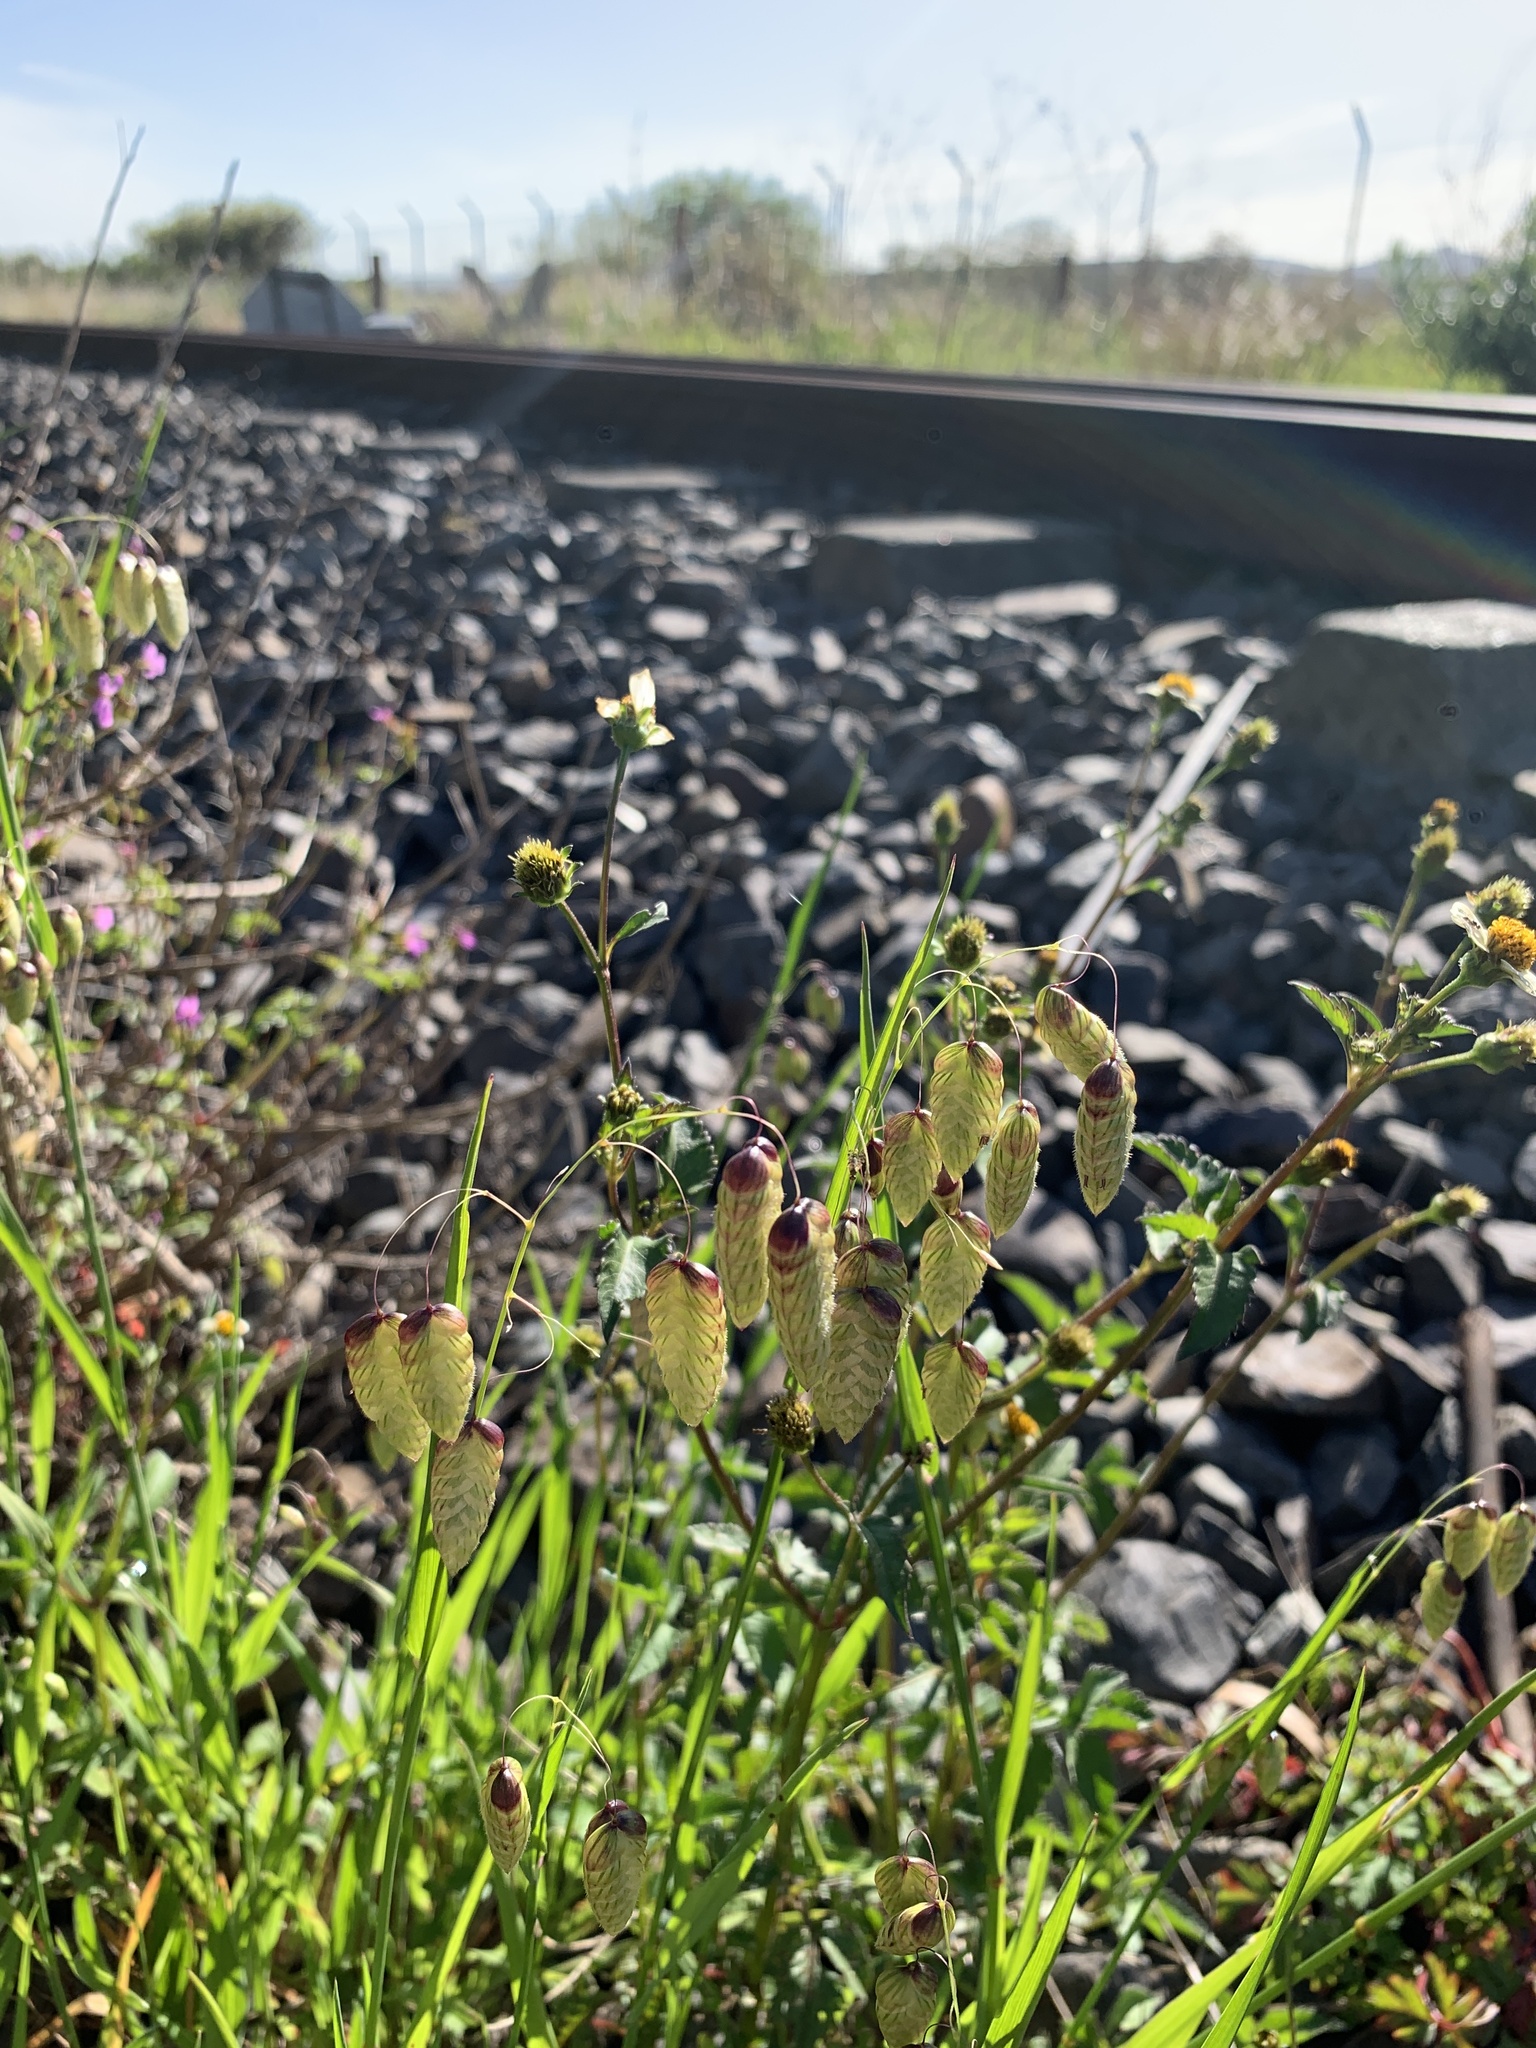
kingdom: Plantae
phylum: Tracheophyta
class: Liliopsida
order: Poales
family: Poaceae
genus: Briza
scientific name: Briza maxima
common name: Big quakinggrass
